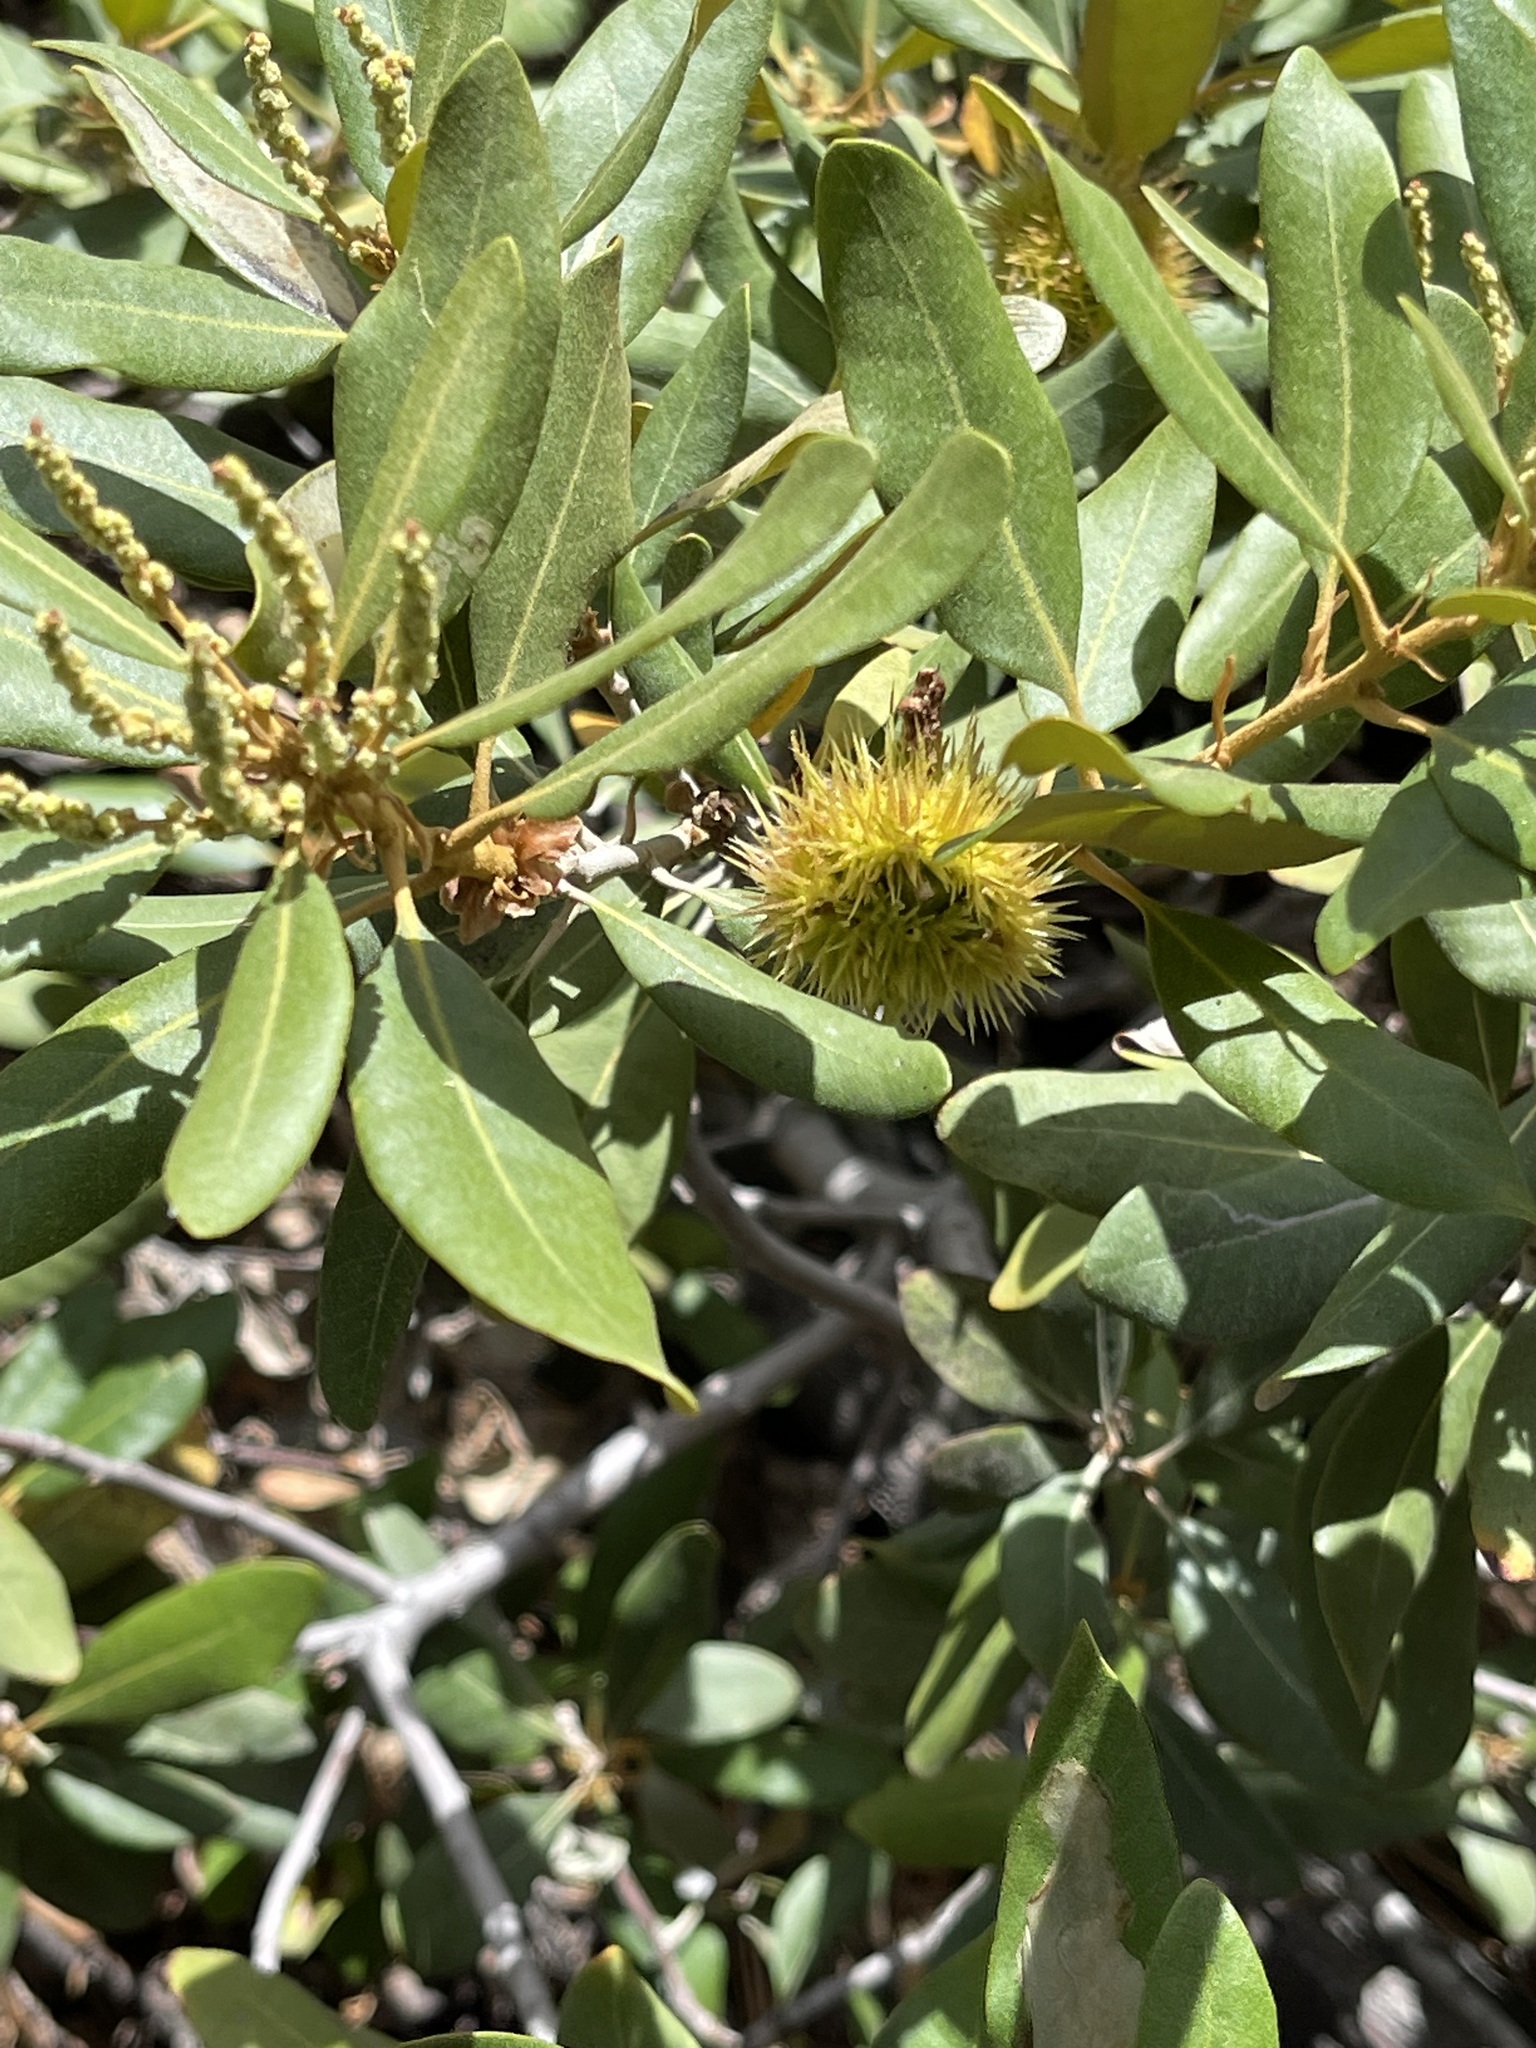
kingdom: Plantae
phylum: Tracheophyta
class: Magnoliopsida
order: Fagales
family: Fagaceae
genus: Chrysolepis
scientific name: Chrysolepis sempervirens
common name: Bush chinquapin
